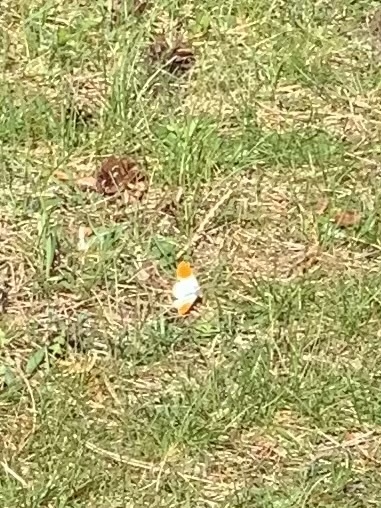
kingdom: Animalia
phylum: Arthropoda
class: Insecta
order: Lepidoptera
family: Pieridae
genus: Anthocharis
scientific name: Anthocharis cardamines
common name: Orange-tip
